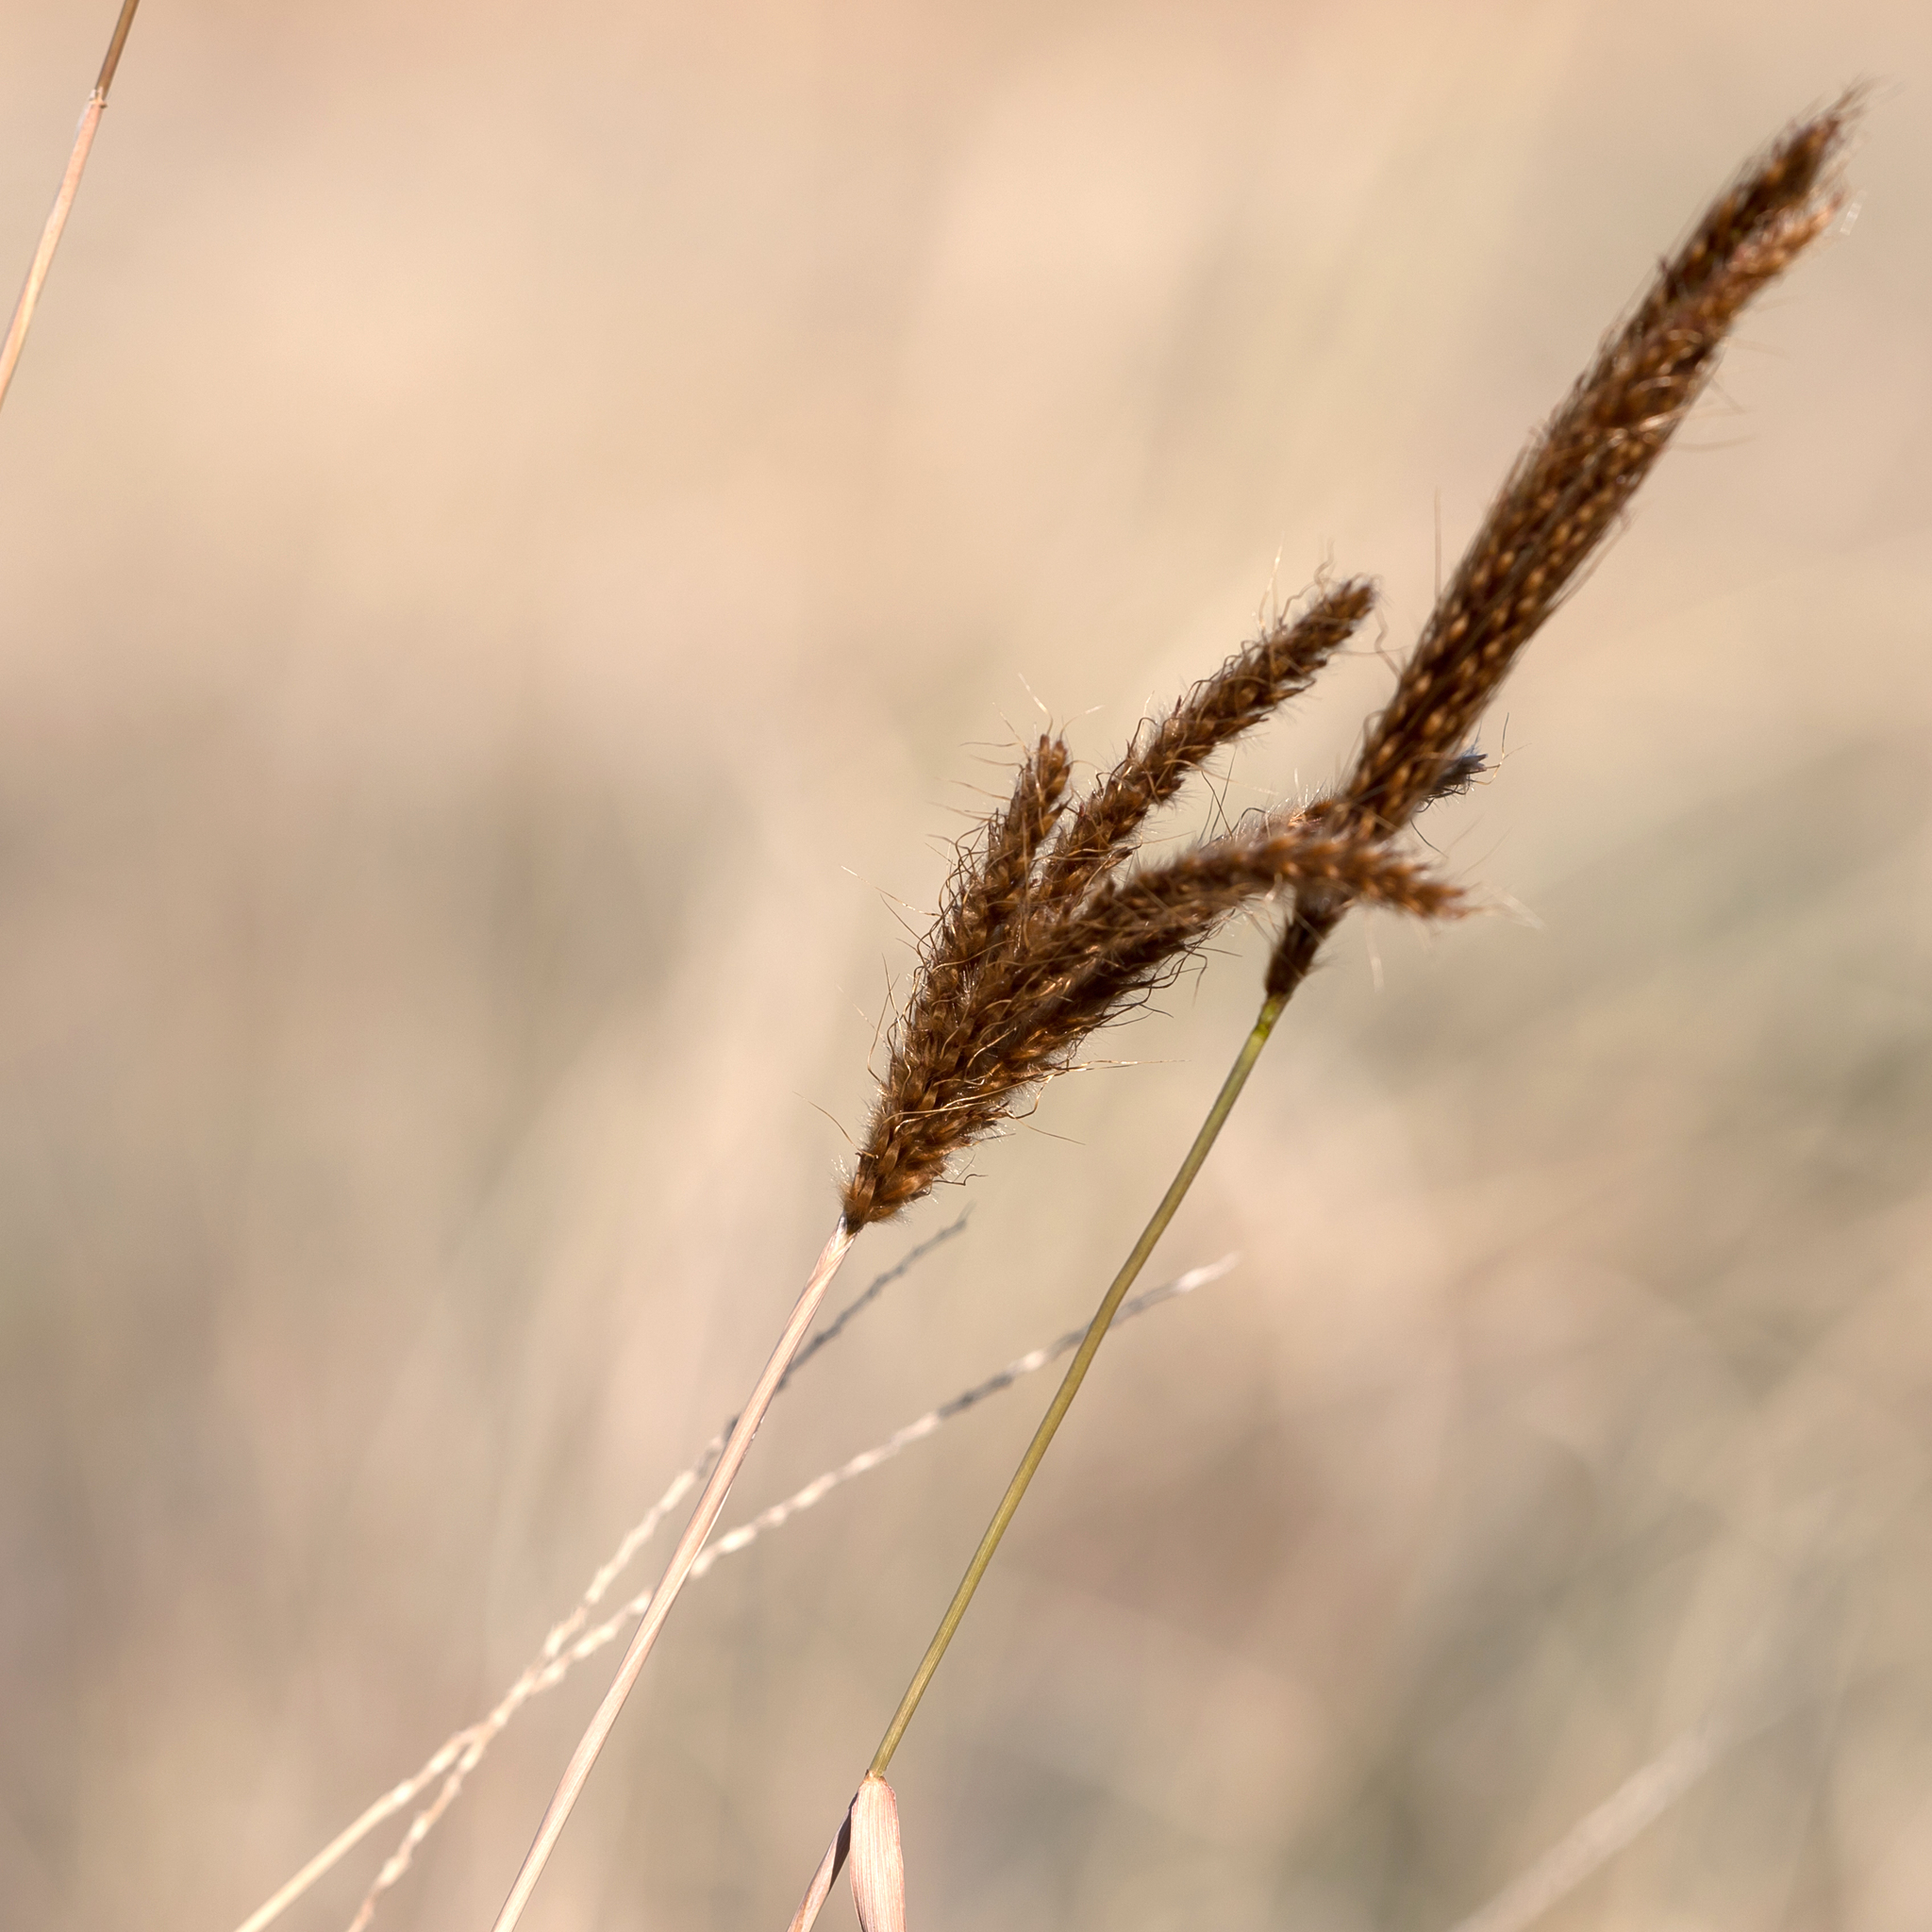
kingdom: Plantae
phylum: Tracheophyta
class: Liliopsida
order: Poales
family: Poaceae
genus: Eulalia
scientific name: Eulalia aurea
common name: Silky browntop
